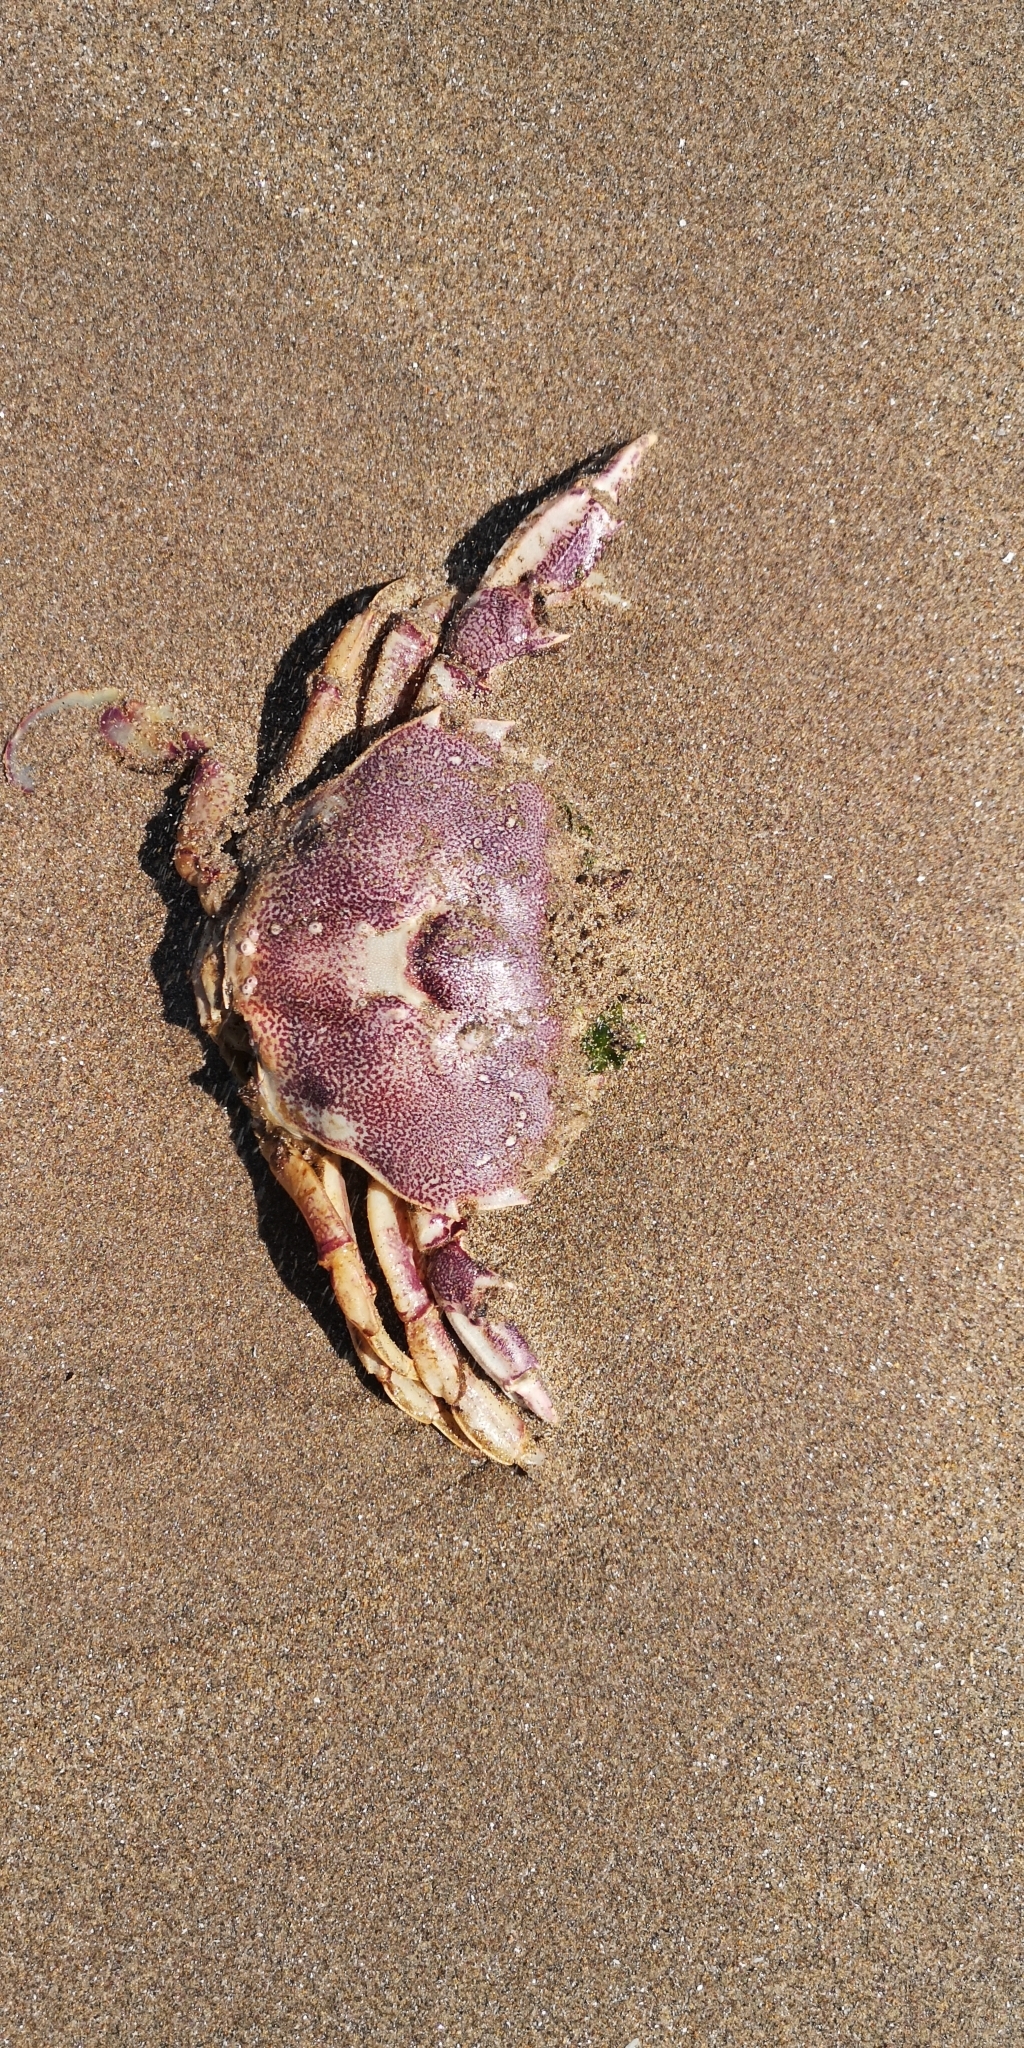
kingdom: Animalia
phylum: Arthropoda
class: Malacostraca
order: Decapoda
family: Ovalipidae
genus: Ovalipes
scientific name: Ovalipes trimaculatus
